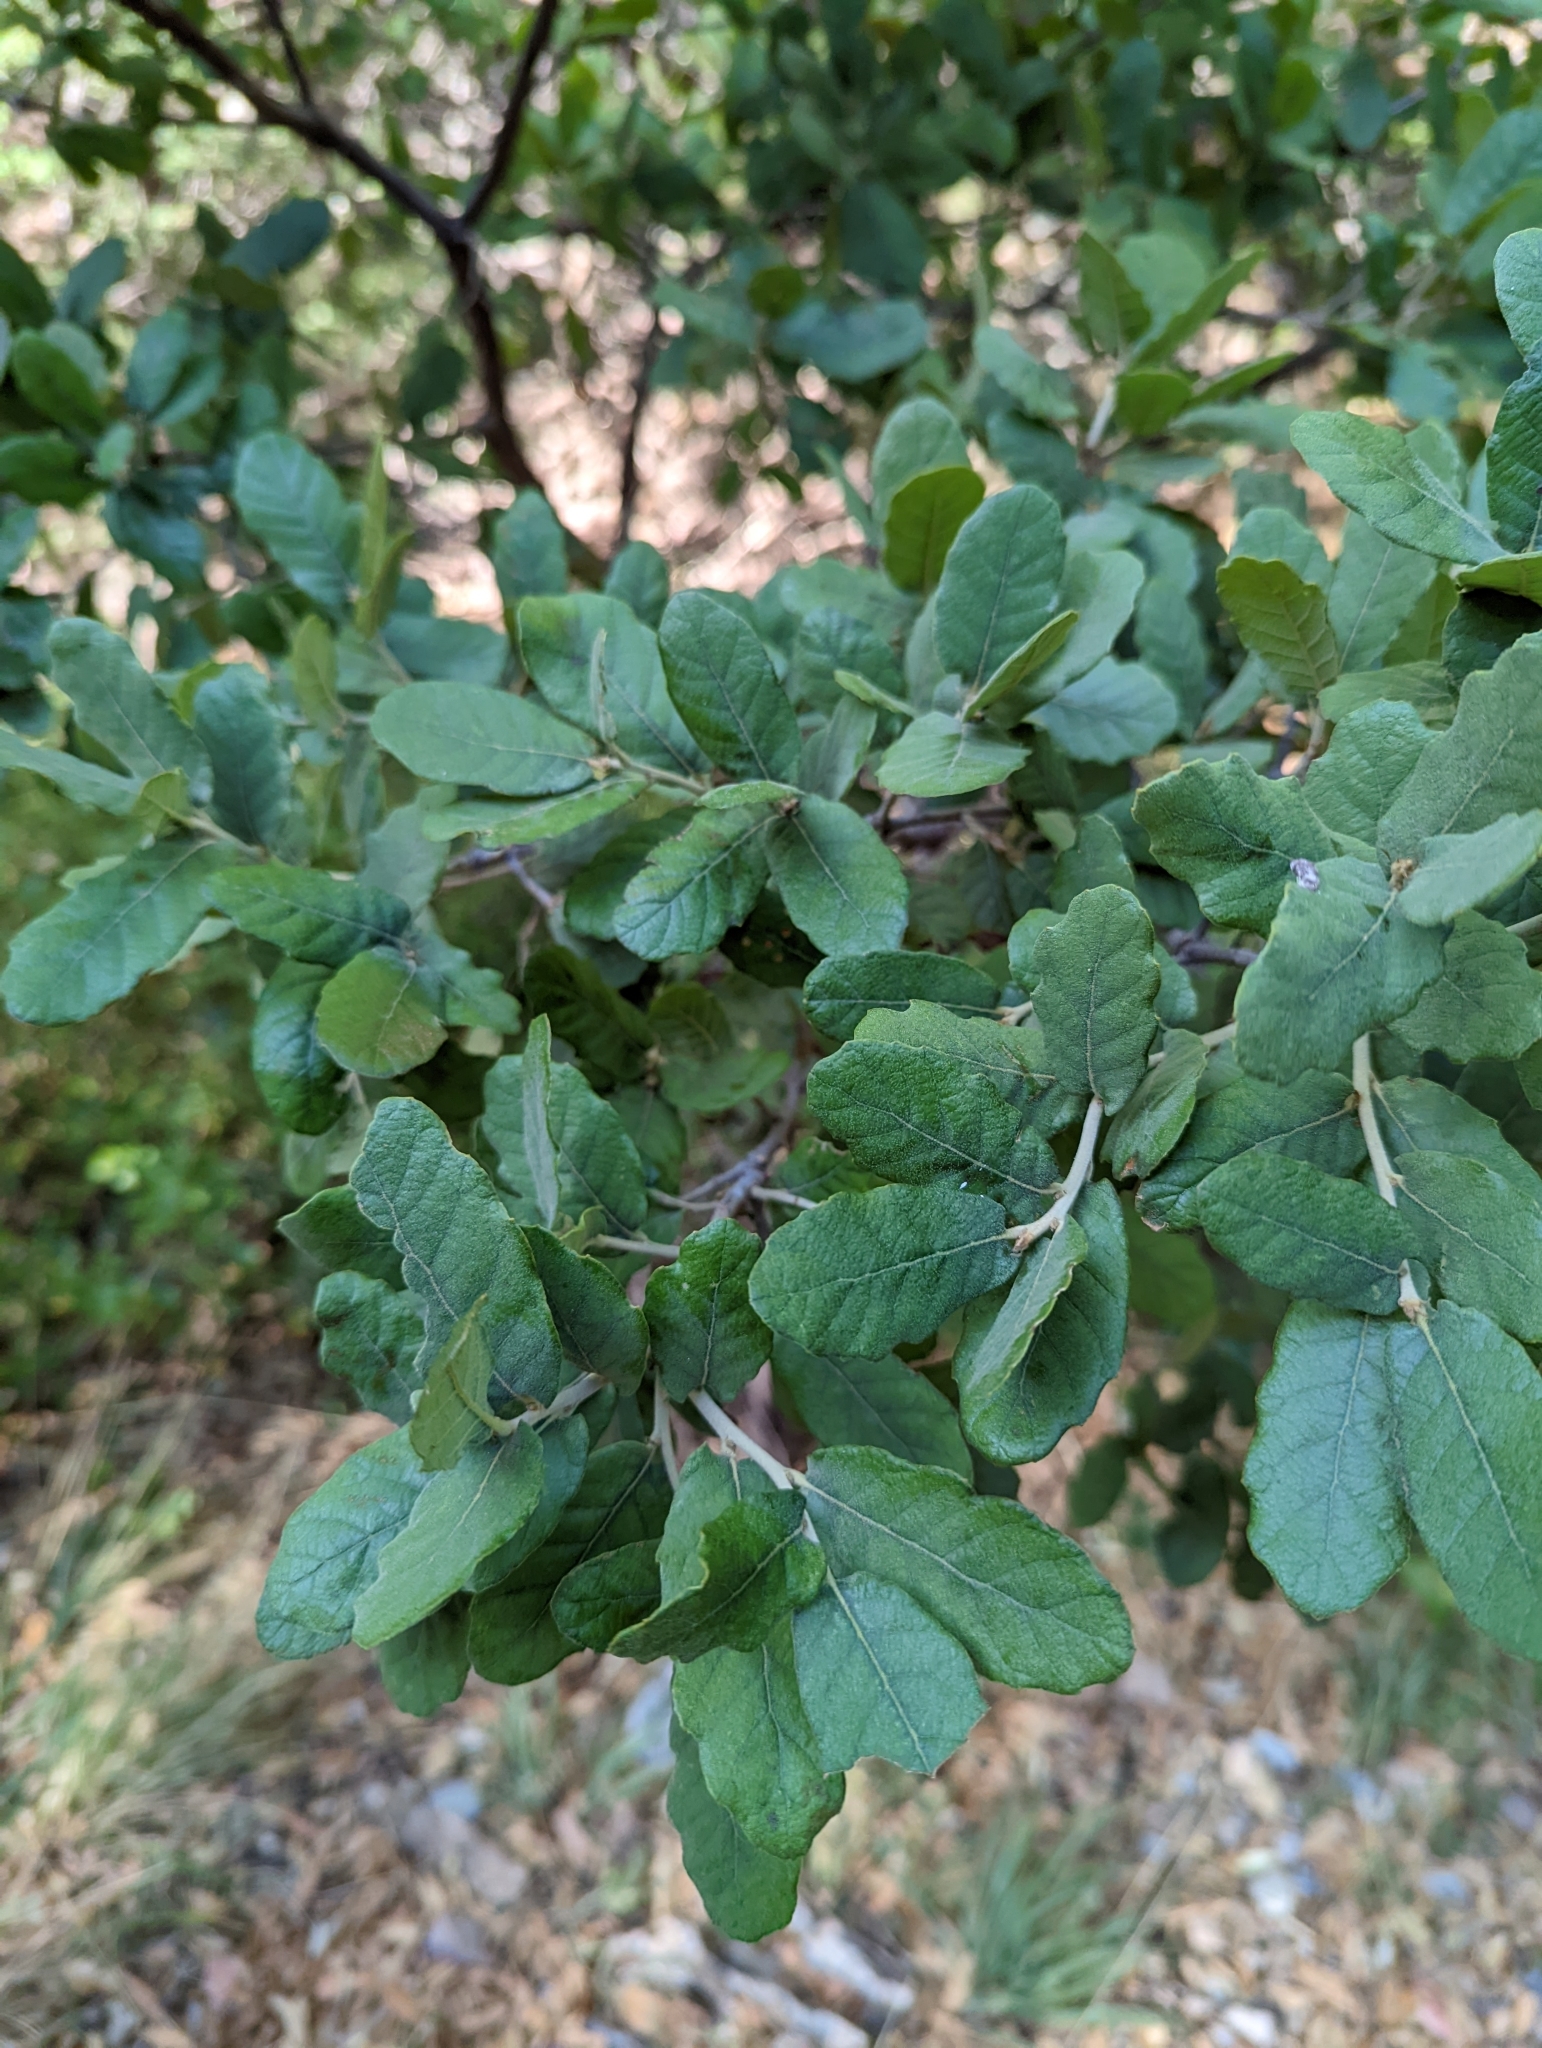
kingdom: Plantae
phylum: Tracheophyta
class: Magnoliopsida
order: Fagales
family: Fagaceae
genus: Quercus
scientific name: Quercus arizonica
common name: Arizona white oak
